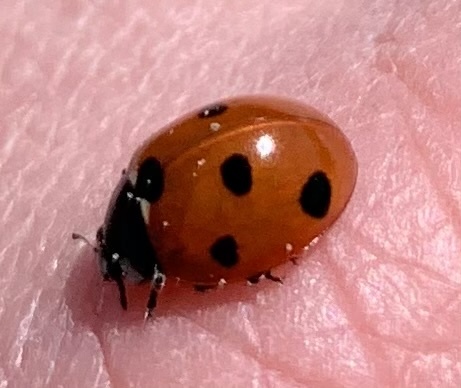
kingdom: Animalia
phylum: Arthropoda
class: Insecta
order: Coleoptera
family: Coccinellidae
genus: Coccinella
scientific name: Coccinella septempunctata
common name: Sevenspotted lady beetle
